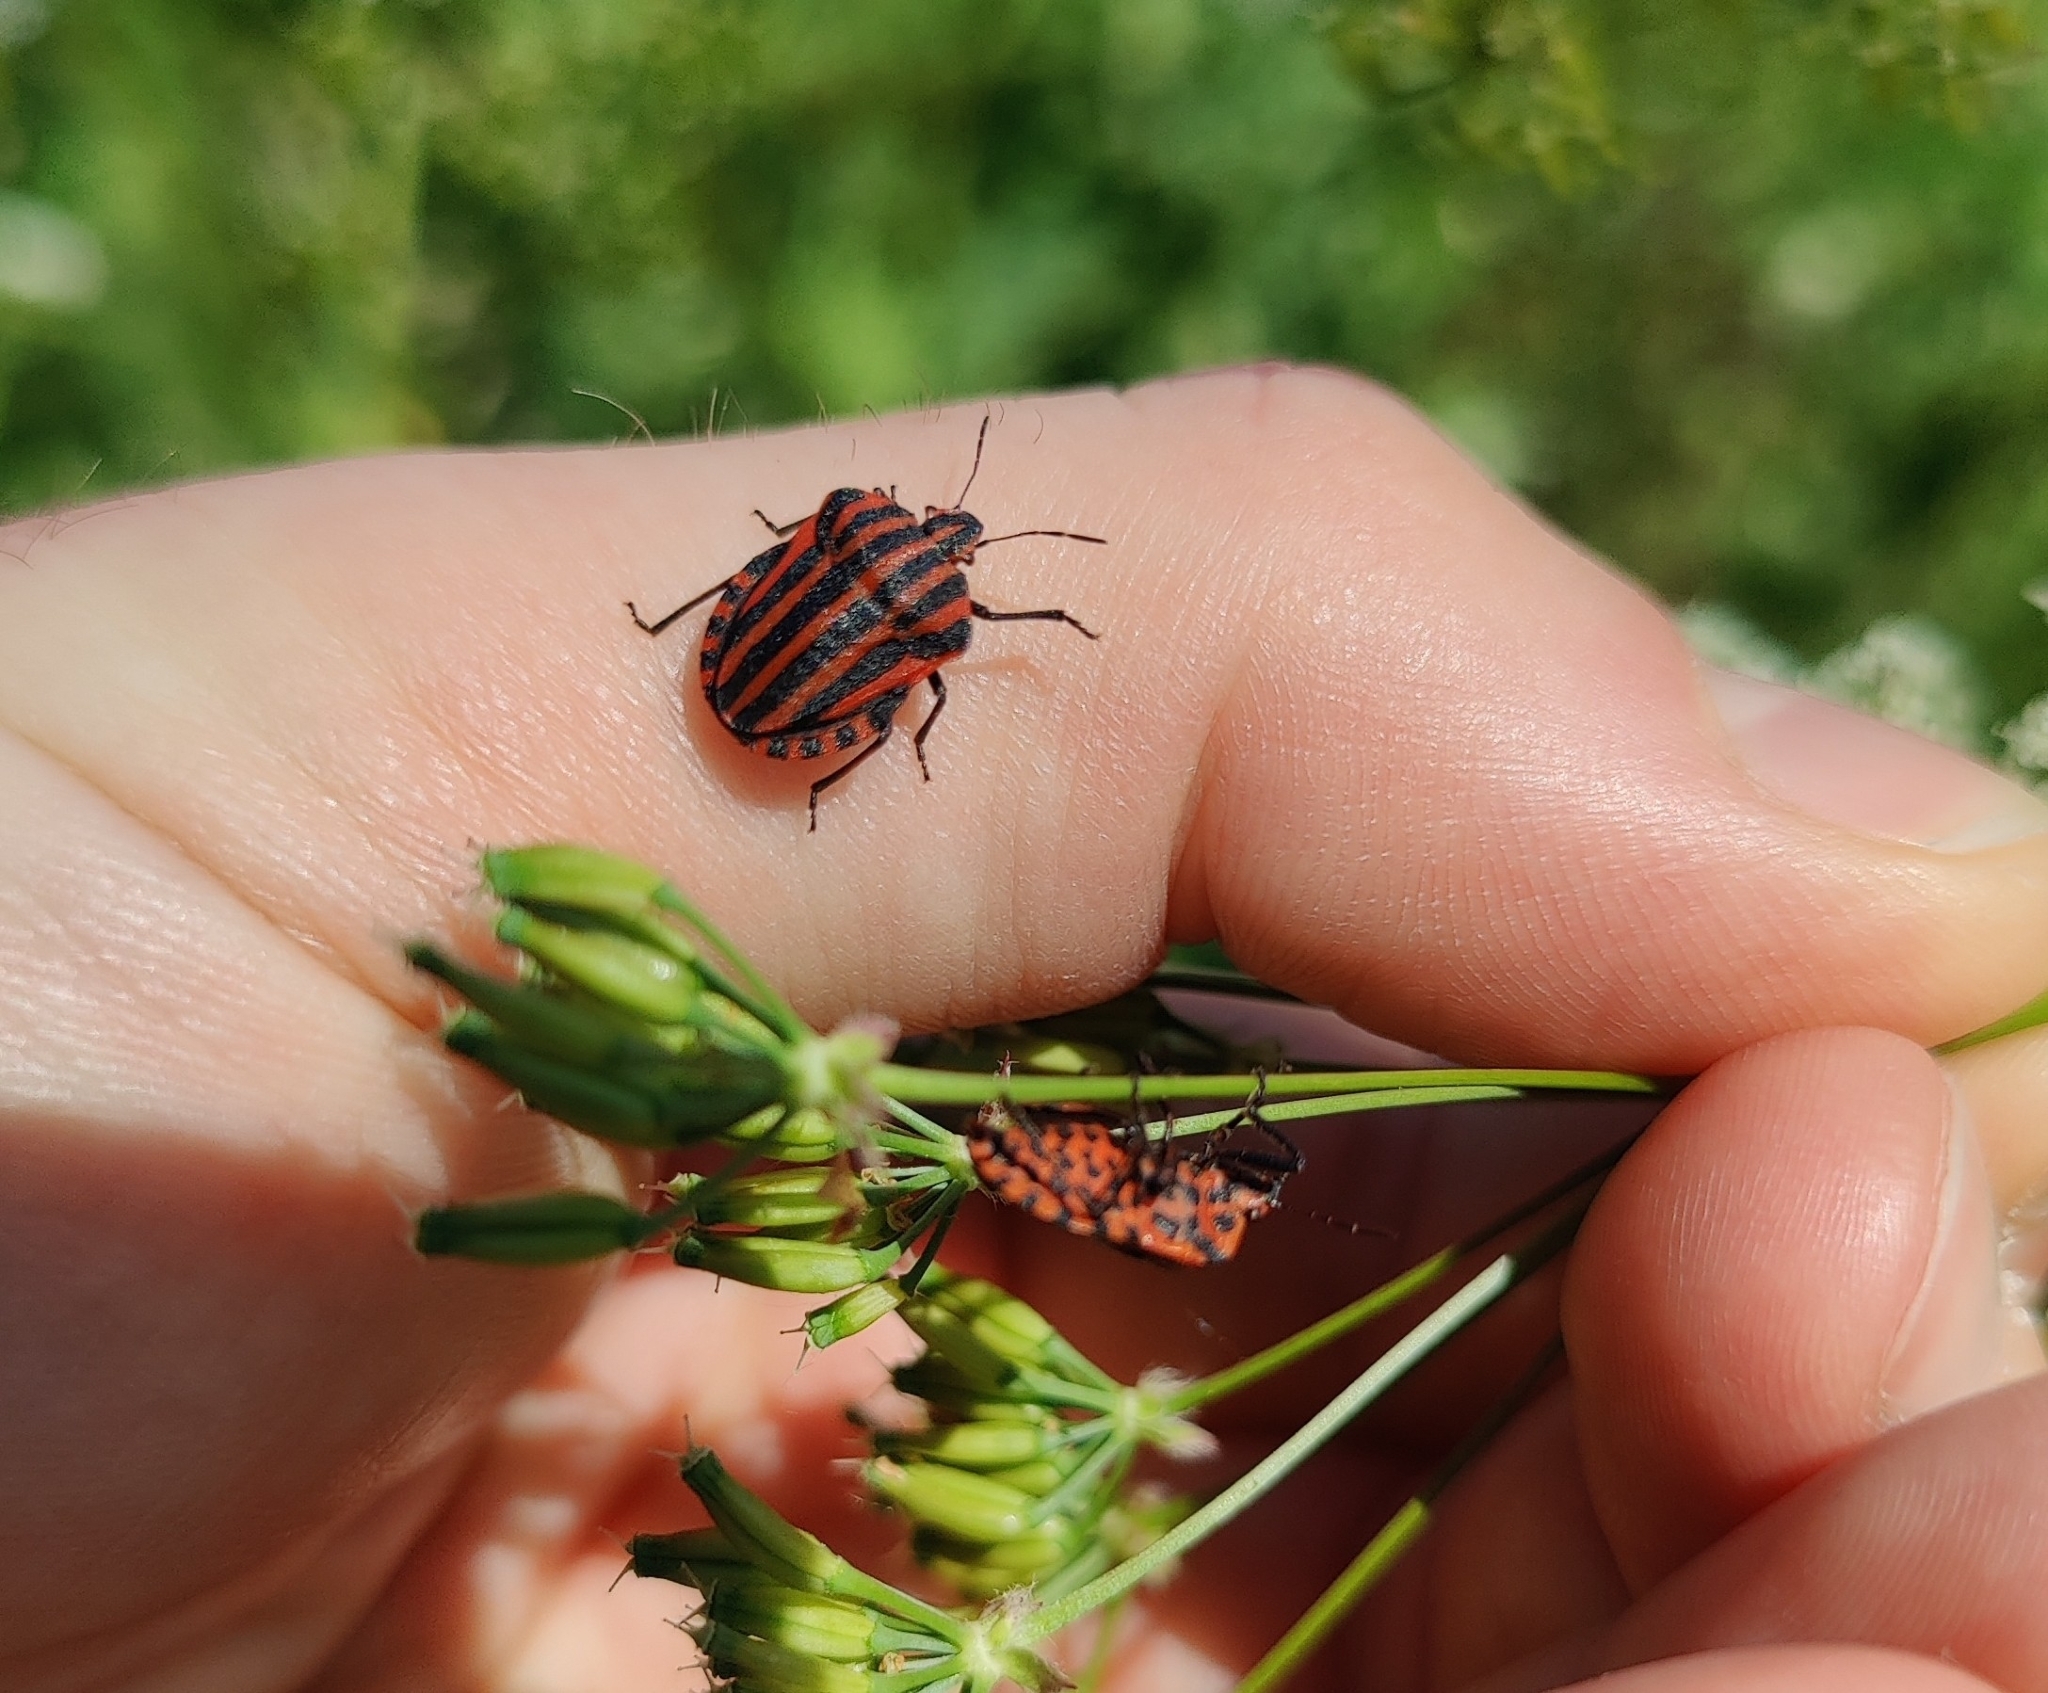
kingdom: Animalia
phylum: Arthropoda
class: Insecta
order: Hemiptera
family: Pentatomidae
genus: Graphosoma
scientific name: Graphosoma italicum
